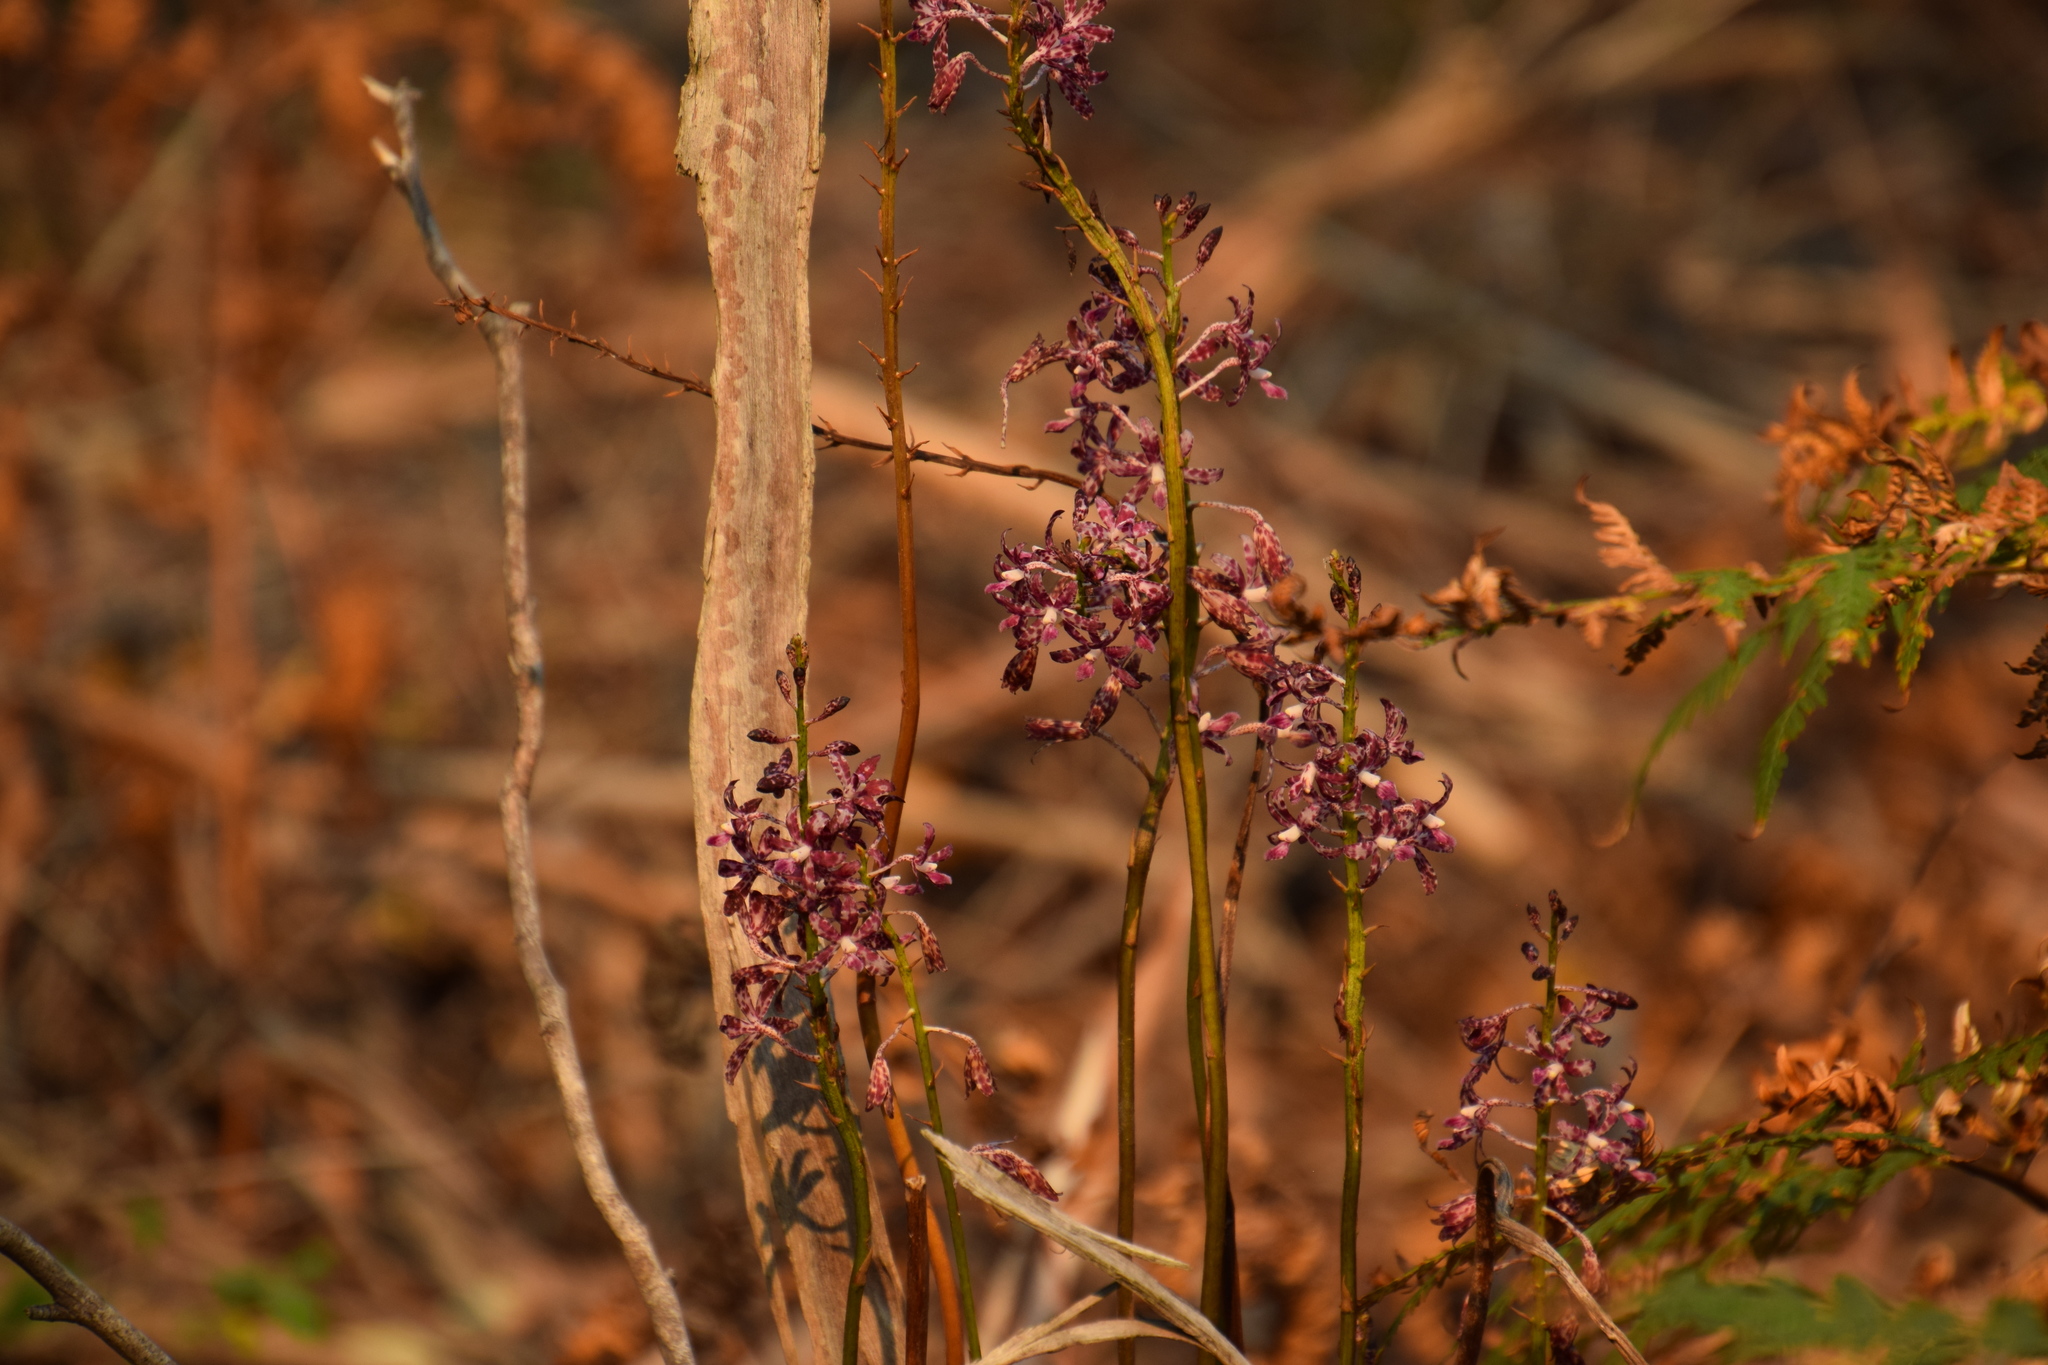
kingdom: Plantae
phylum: Tracheophyta
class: Liliopsida
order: Asparagales
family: Orchidaceae
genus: Dipodium
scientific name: Dipodium variegatum
